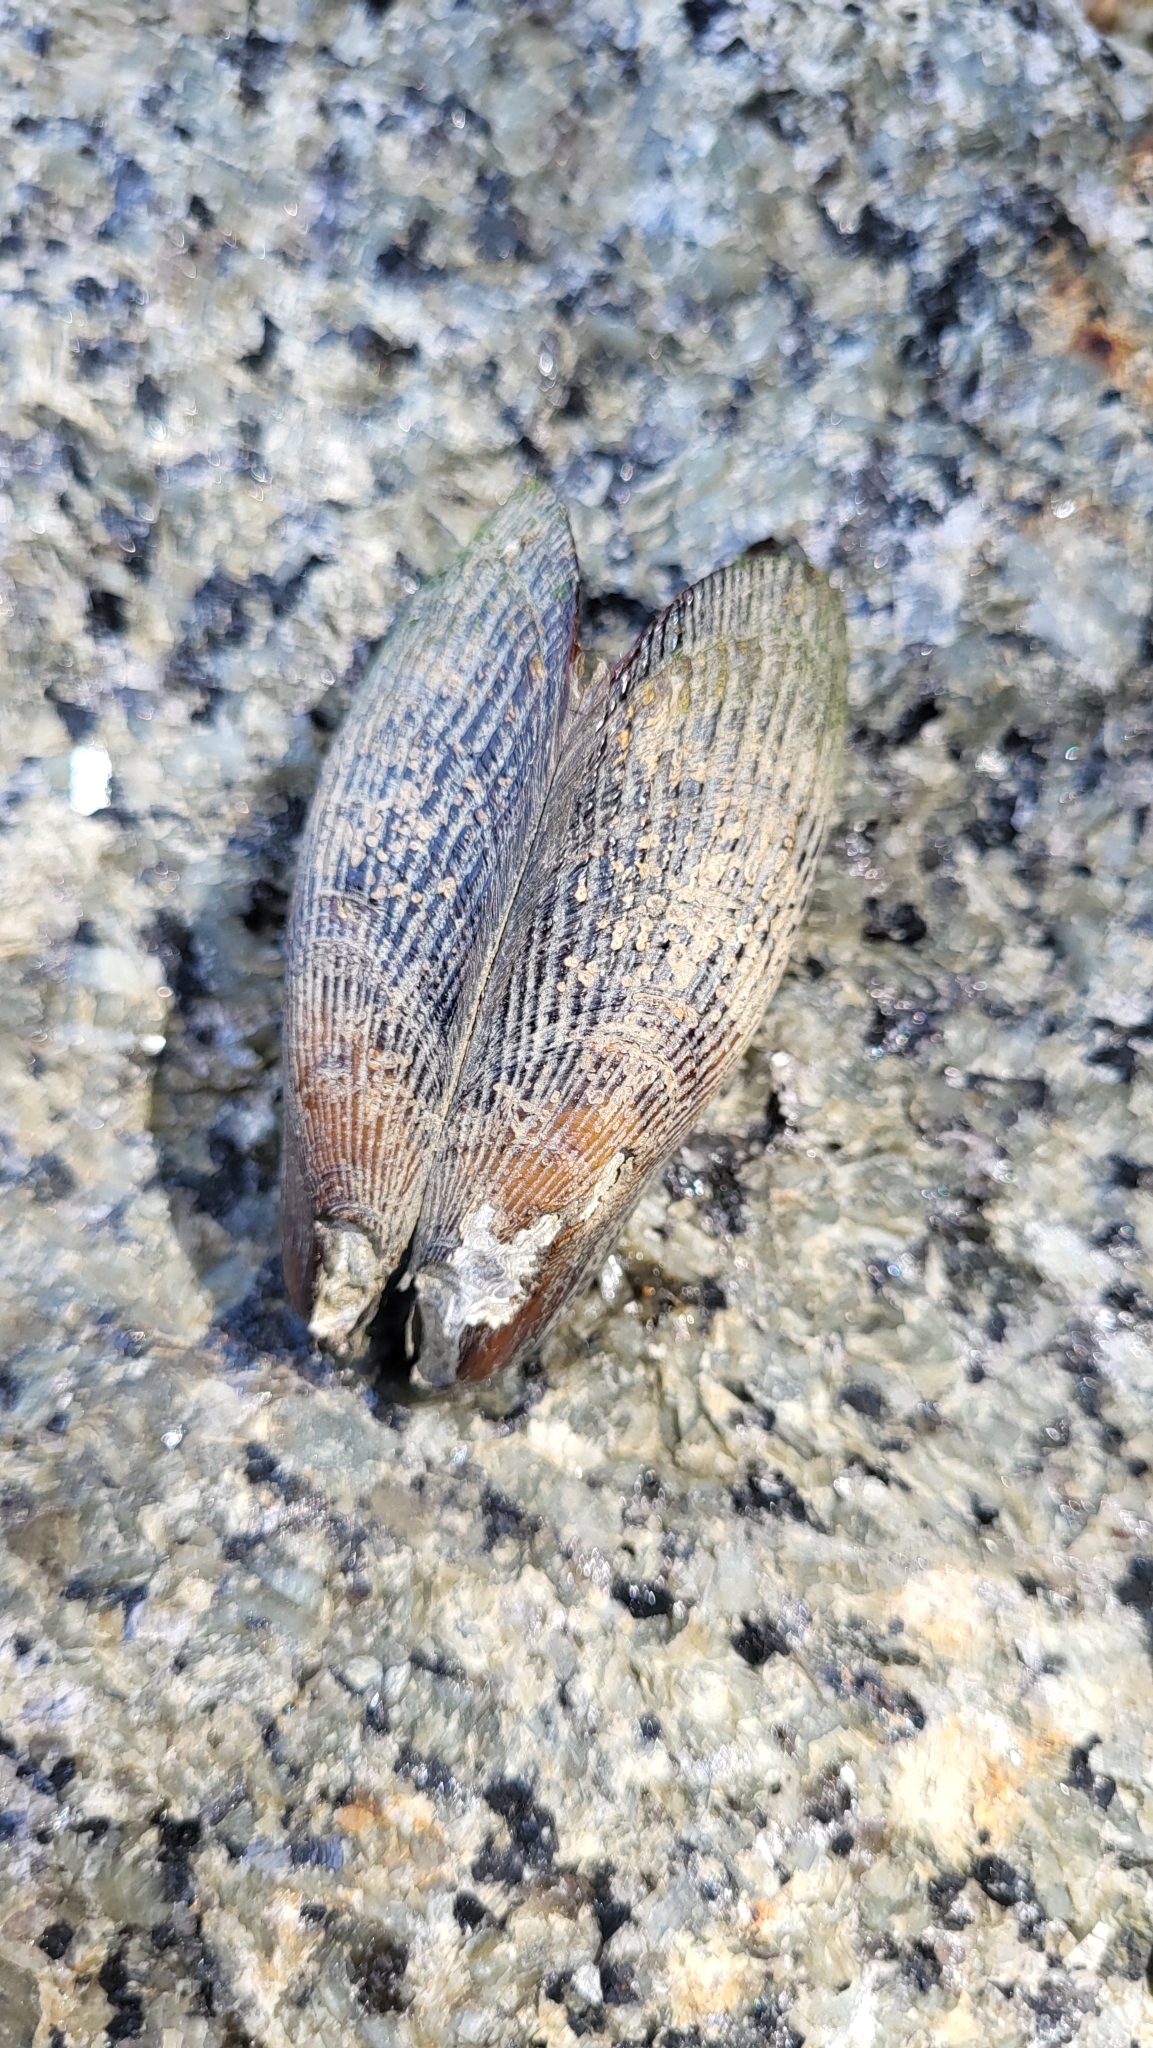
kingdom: Animalia
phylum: Mollusca
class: Bivalvia
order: Mytilida
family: Mytilidae
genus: Geukensia
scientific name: Geukensia demissa
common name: Ribbed mussel
